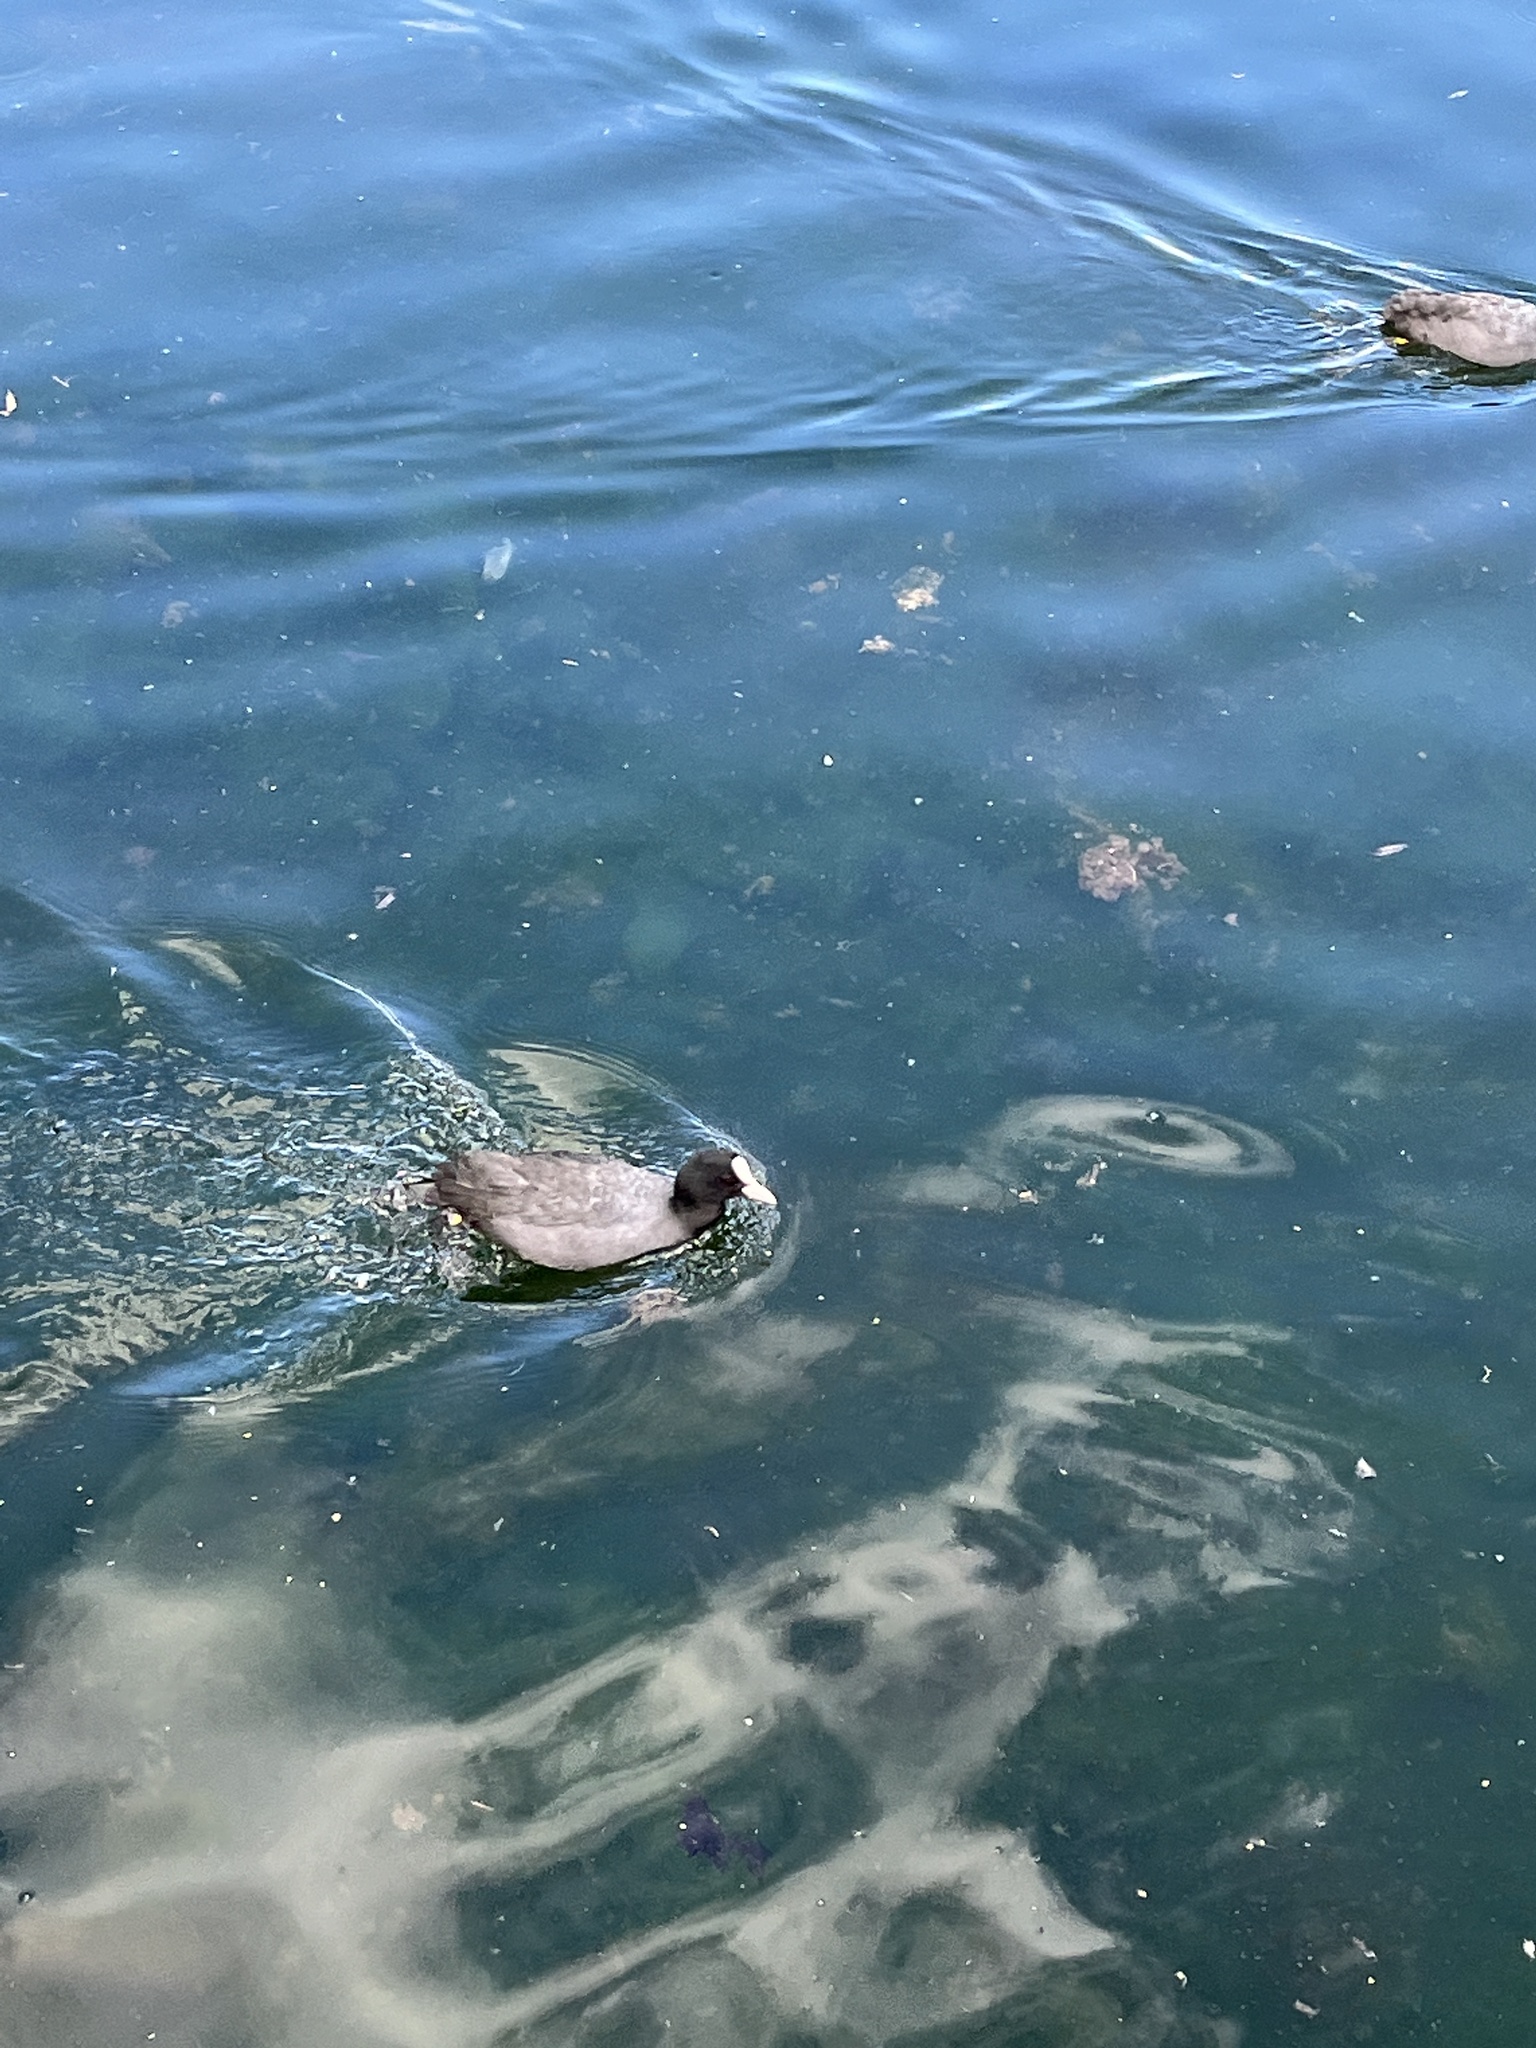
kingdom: Animalia
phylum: Chordata
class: Aves
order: Gruiformes
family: Rallidae
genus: Fulica
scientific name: Fulica atra
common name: Eurasian coot
